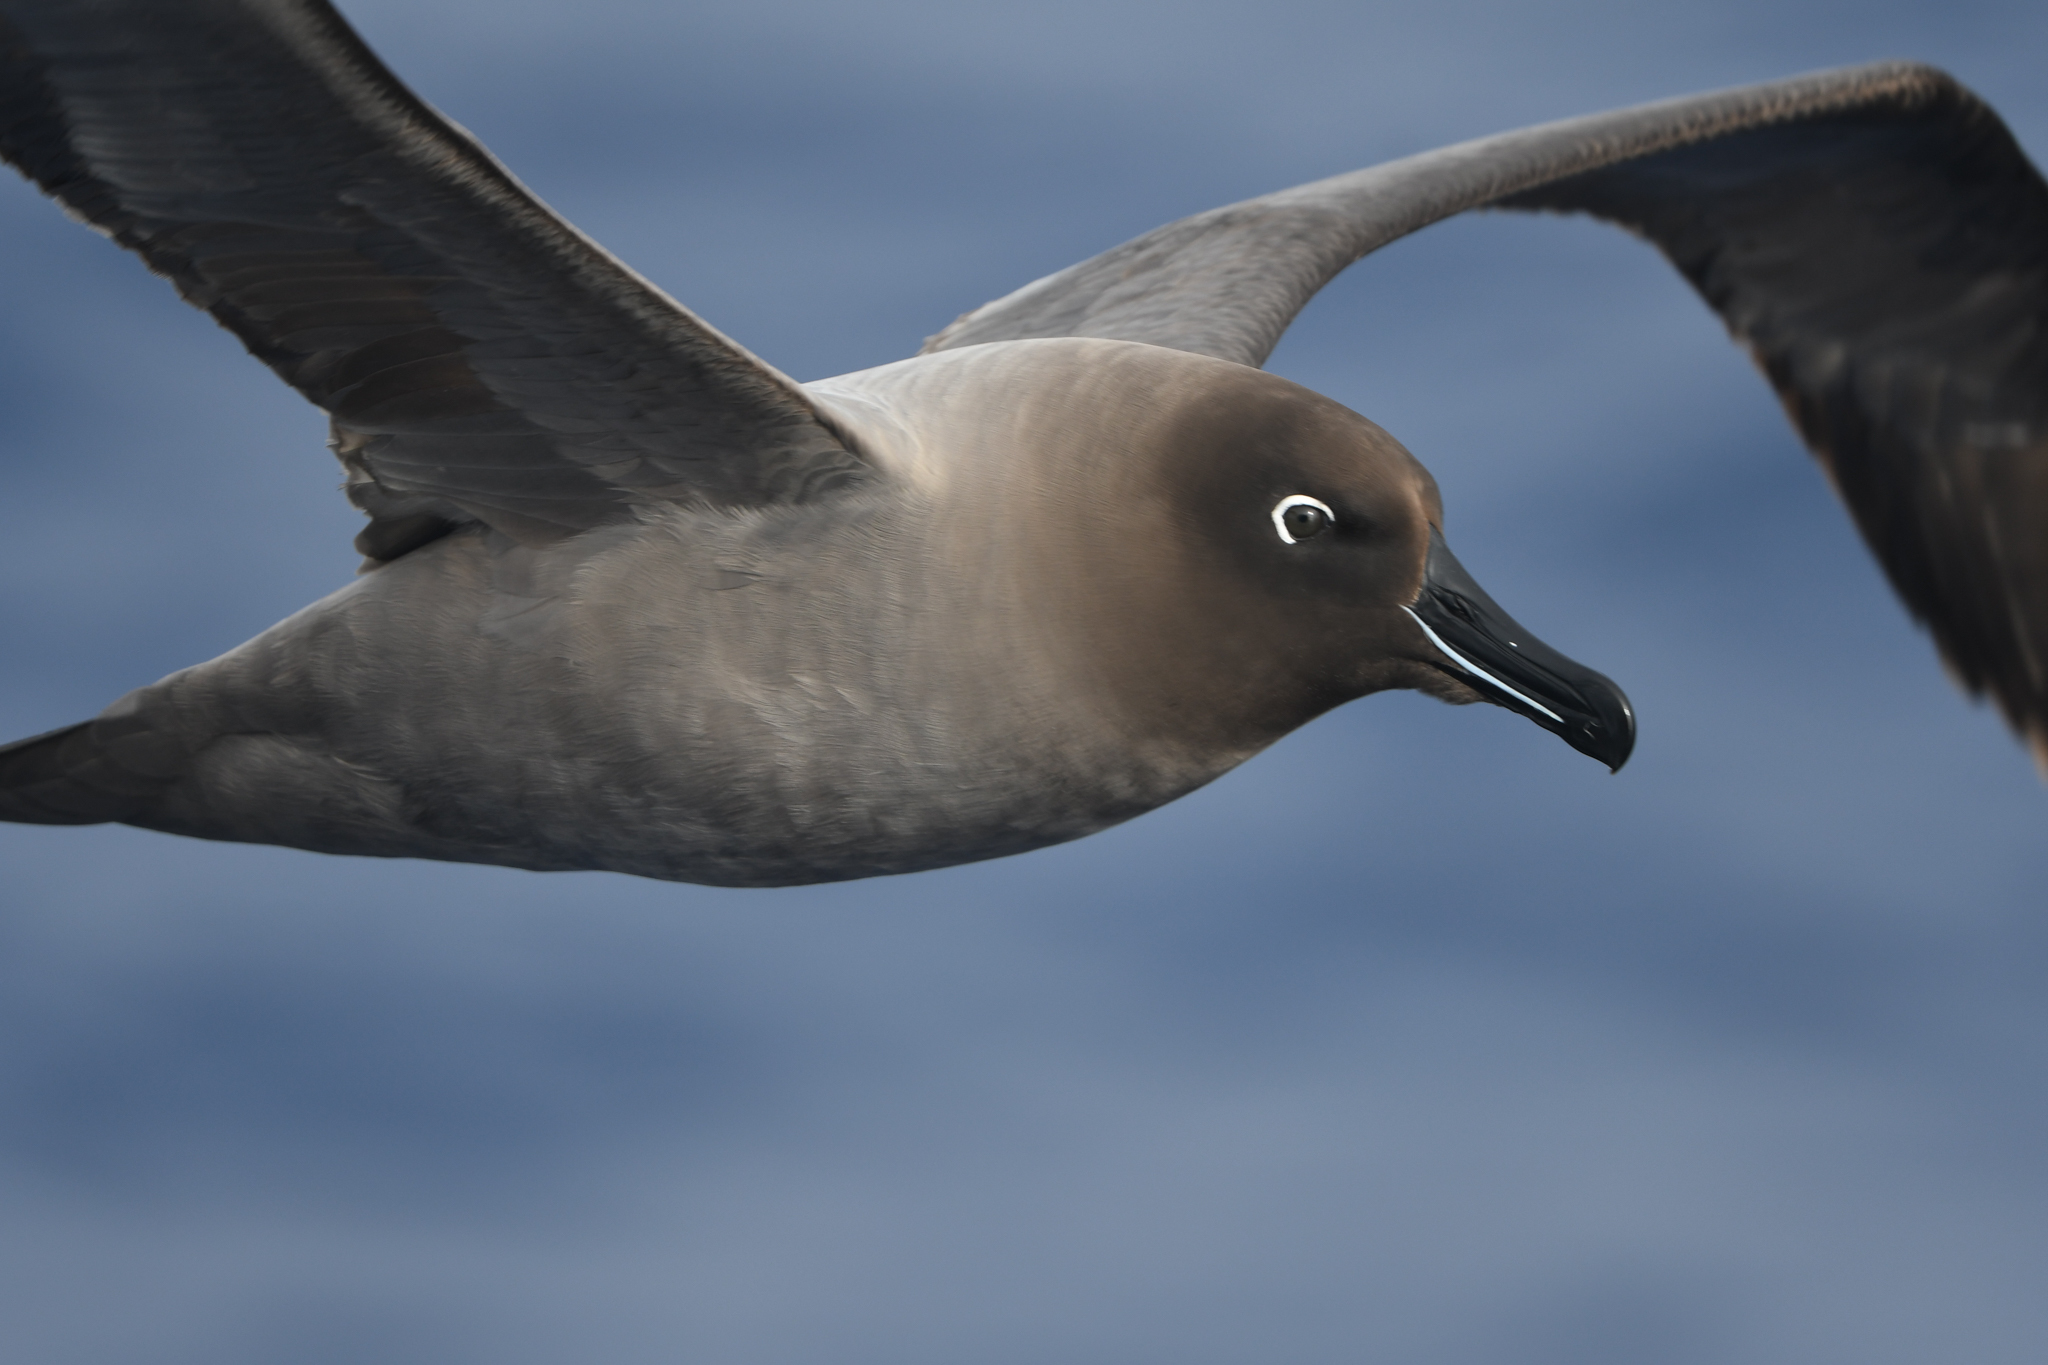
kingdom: Animalia
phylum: Chordata
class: Aves
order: Procellariiformes
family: Diomedeidae
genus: Phoebetria
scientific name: Phoebetria palpebrata
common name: Light-mantled albatross
